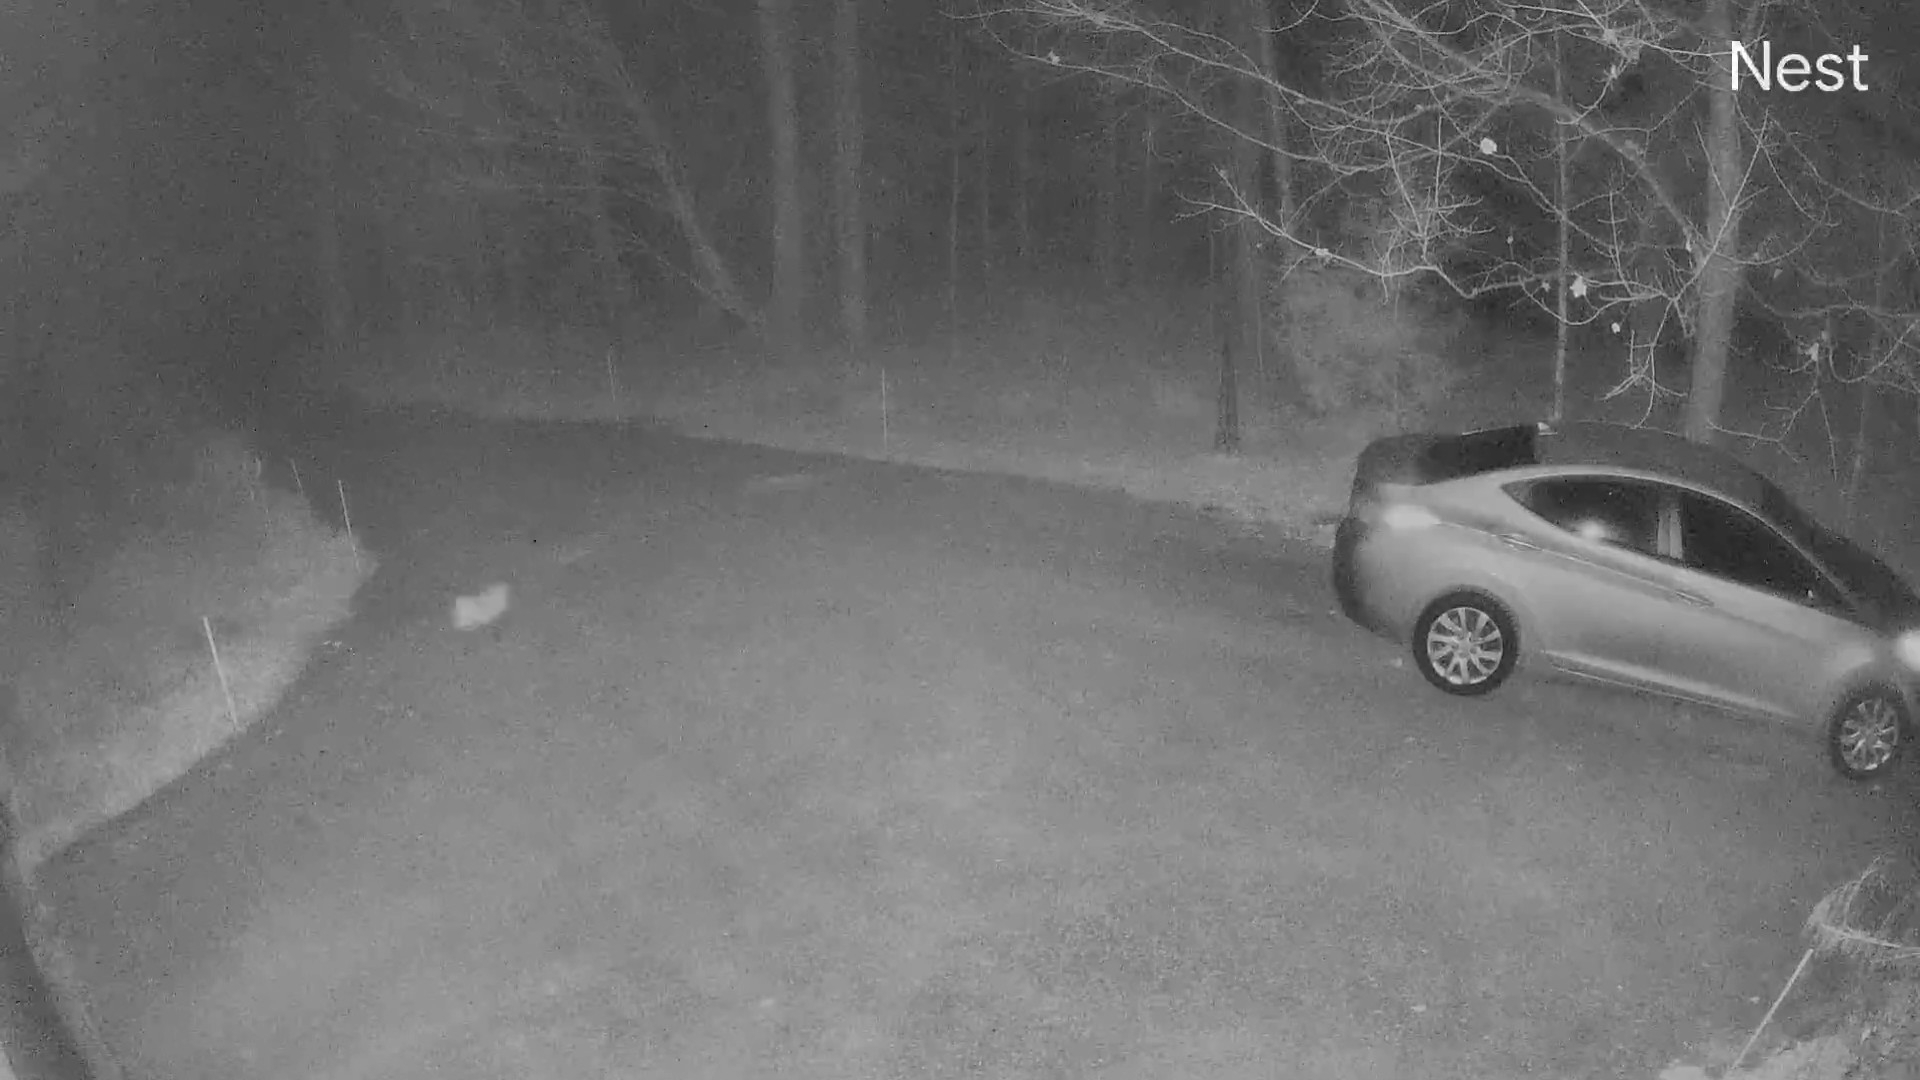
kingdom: Animalia
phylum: Chordata
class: Mammalia
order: Carnivora
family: Canidae
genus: Vulpes
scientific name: Vulpes vulpes
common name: Red fox
